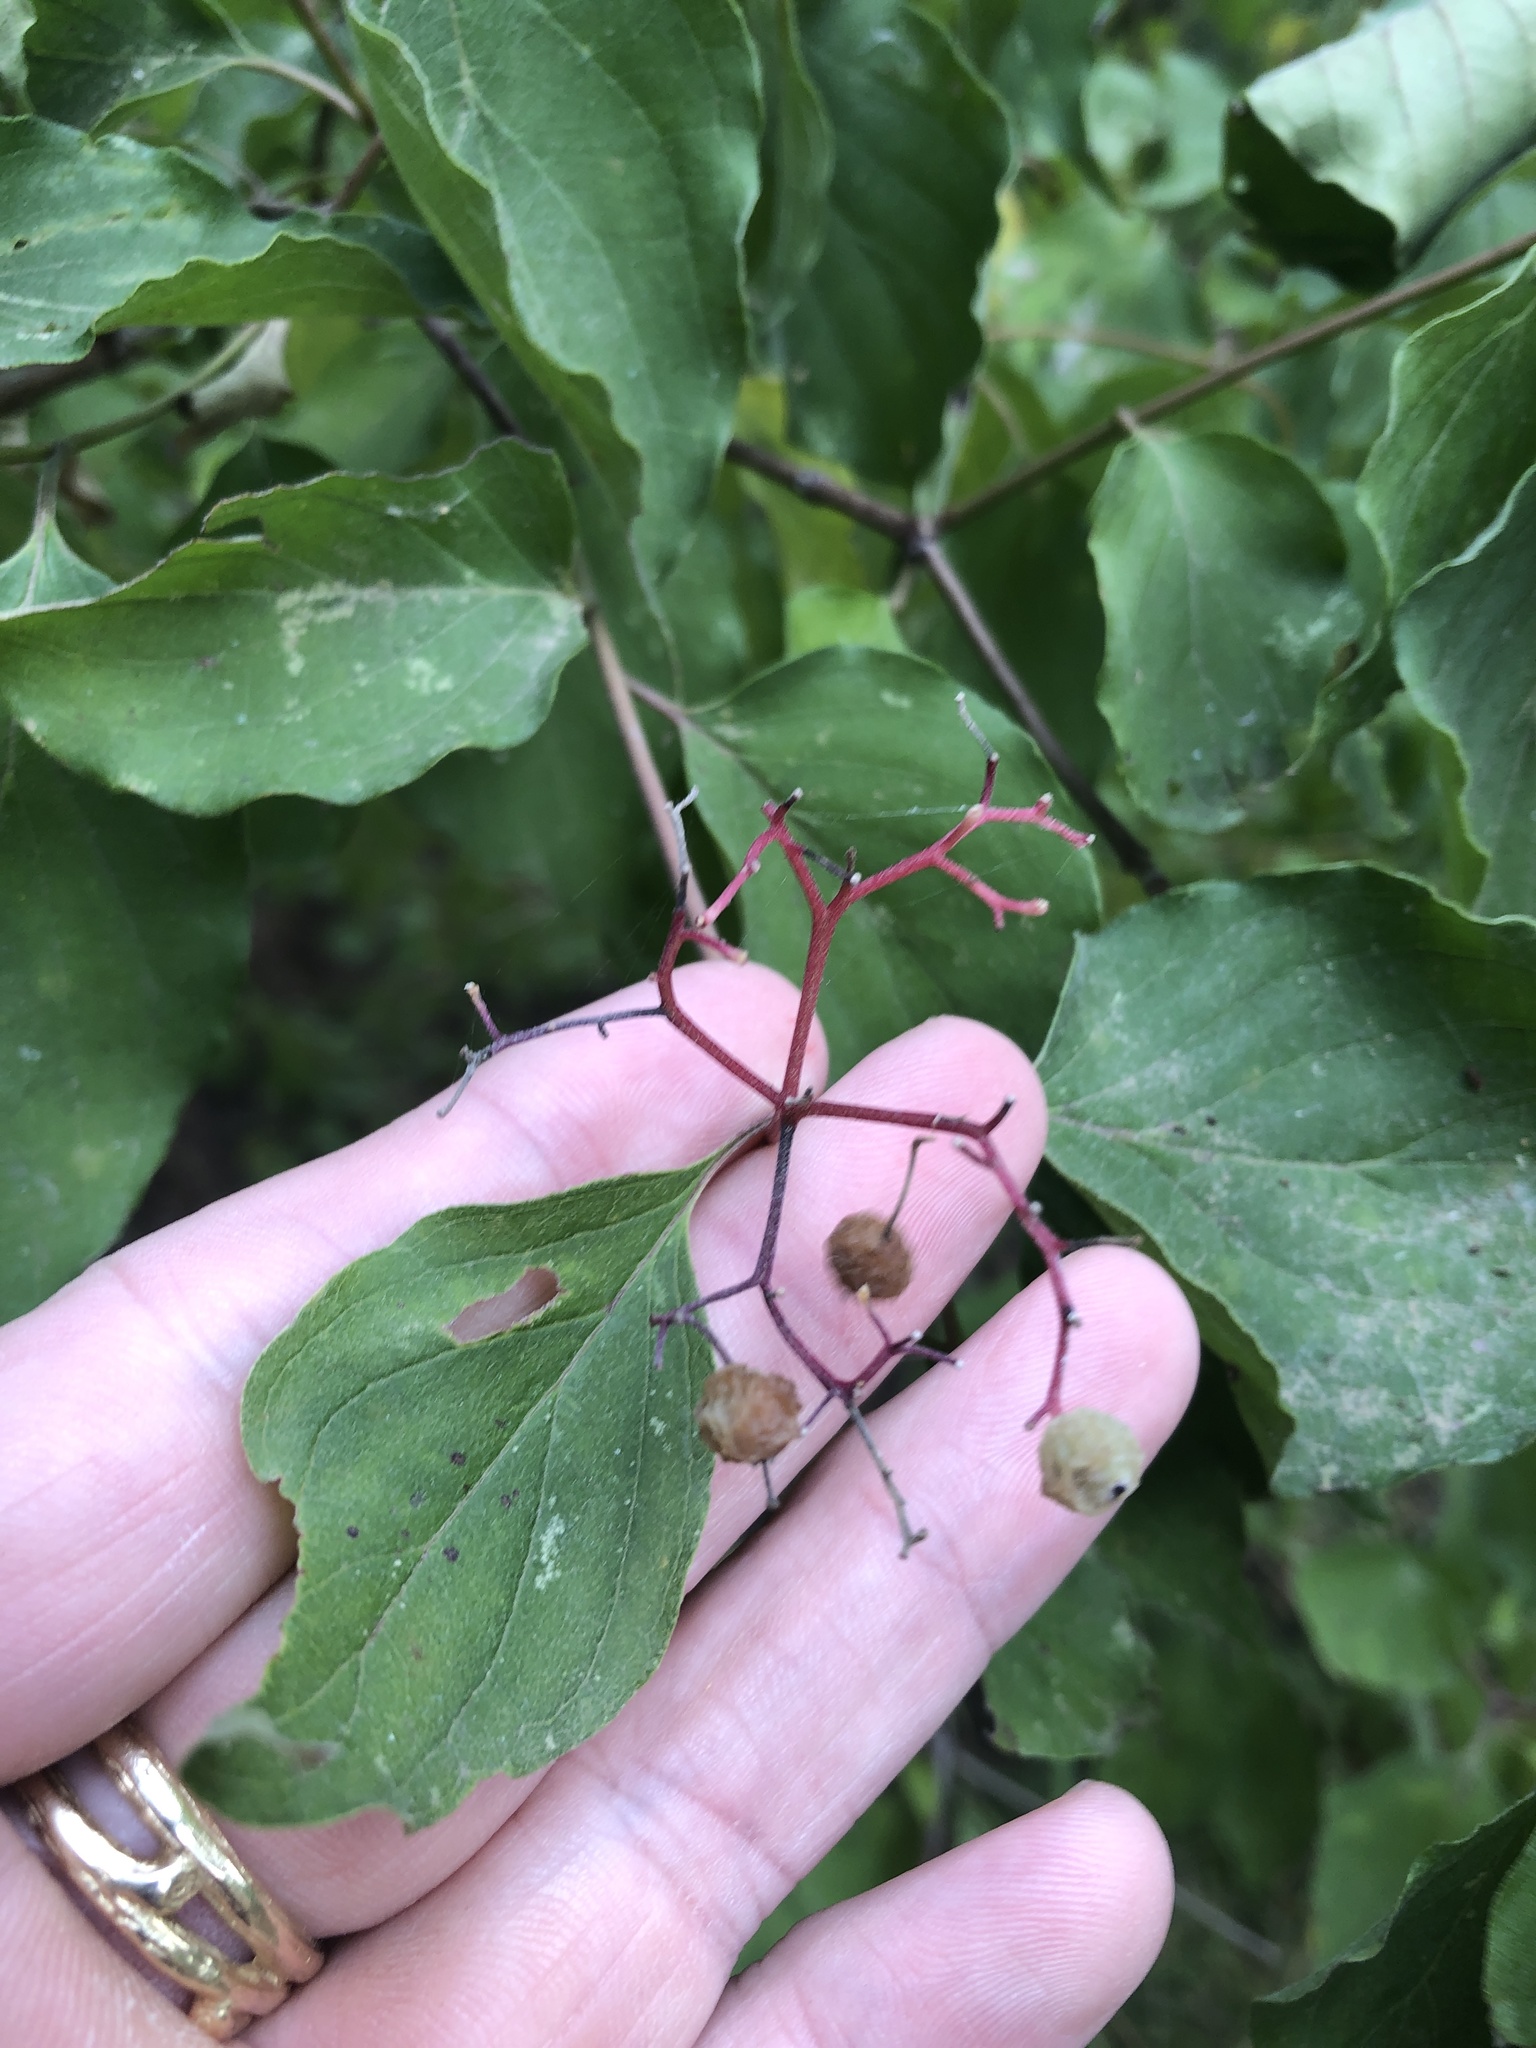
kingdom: Plantae
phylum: Tracheophyta
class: Magnoliopsida
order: Cornales
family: Cornaceae
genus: Cornus
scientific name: Cornus drummondii
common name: Rough-leaf dogwood
